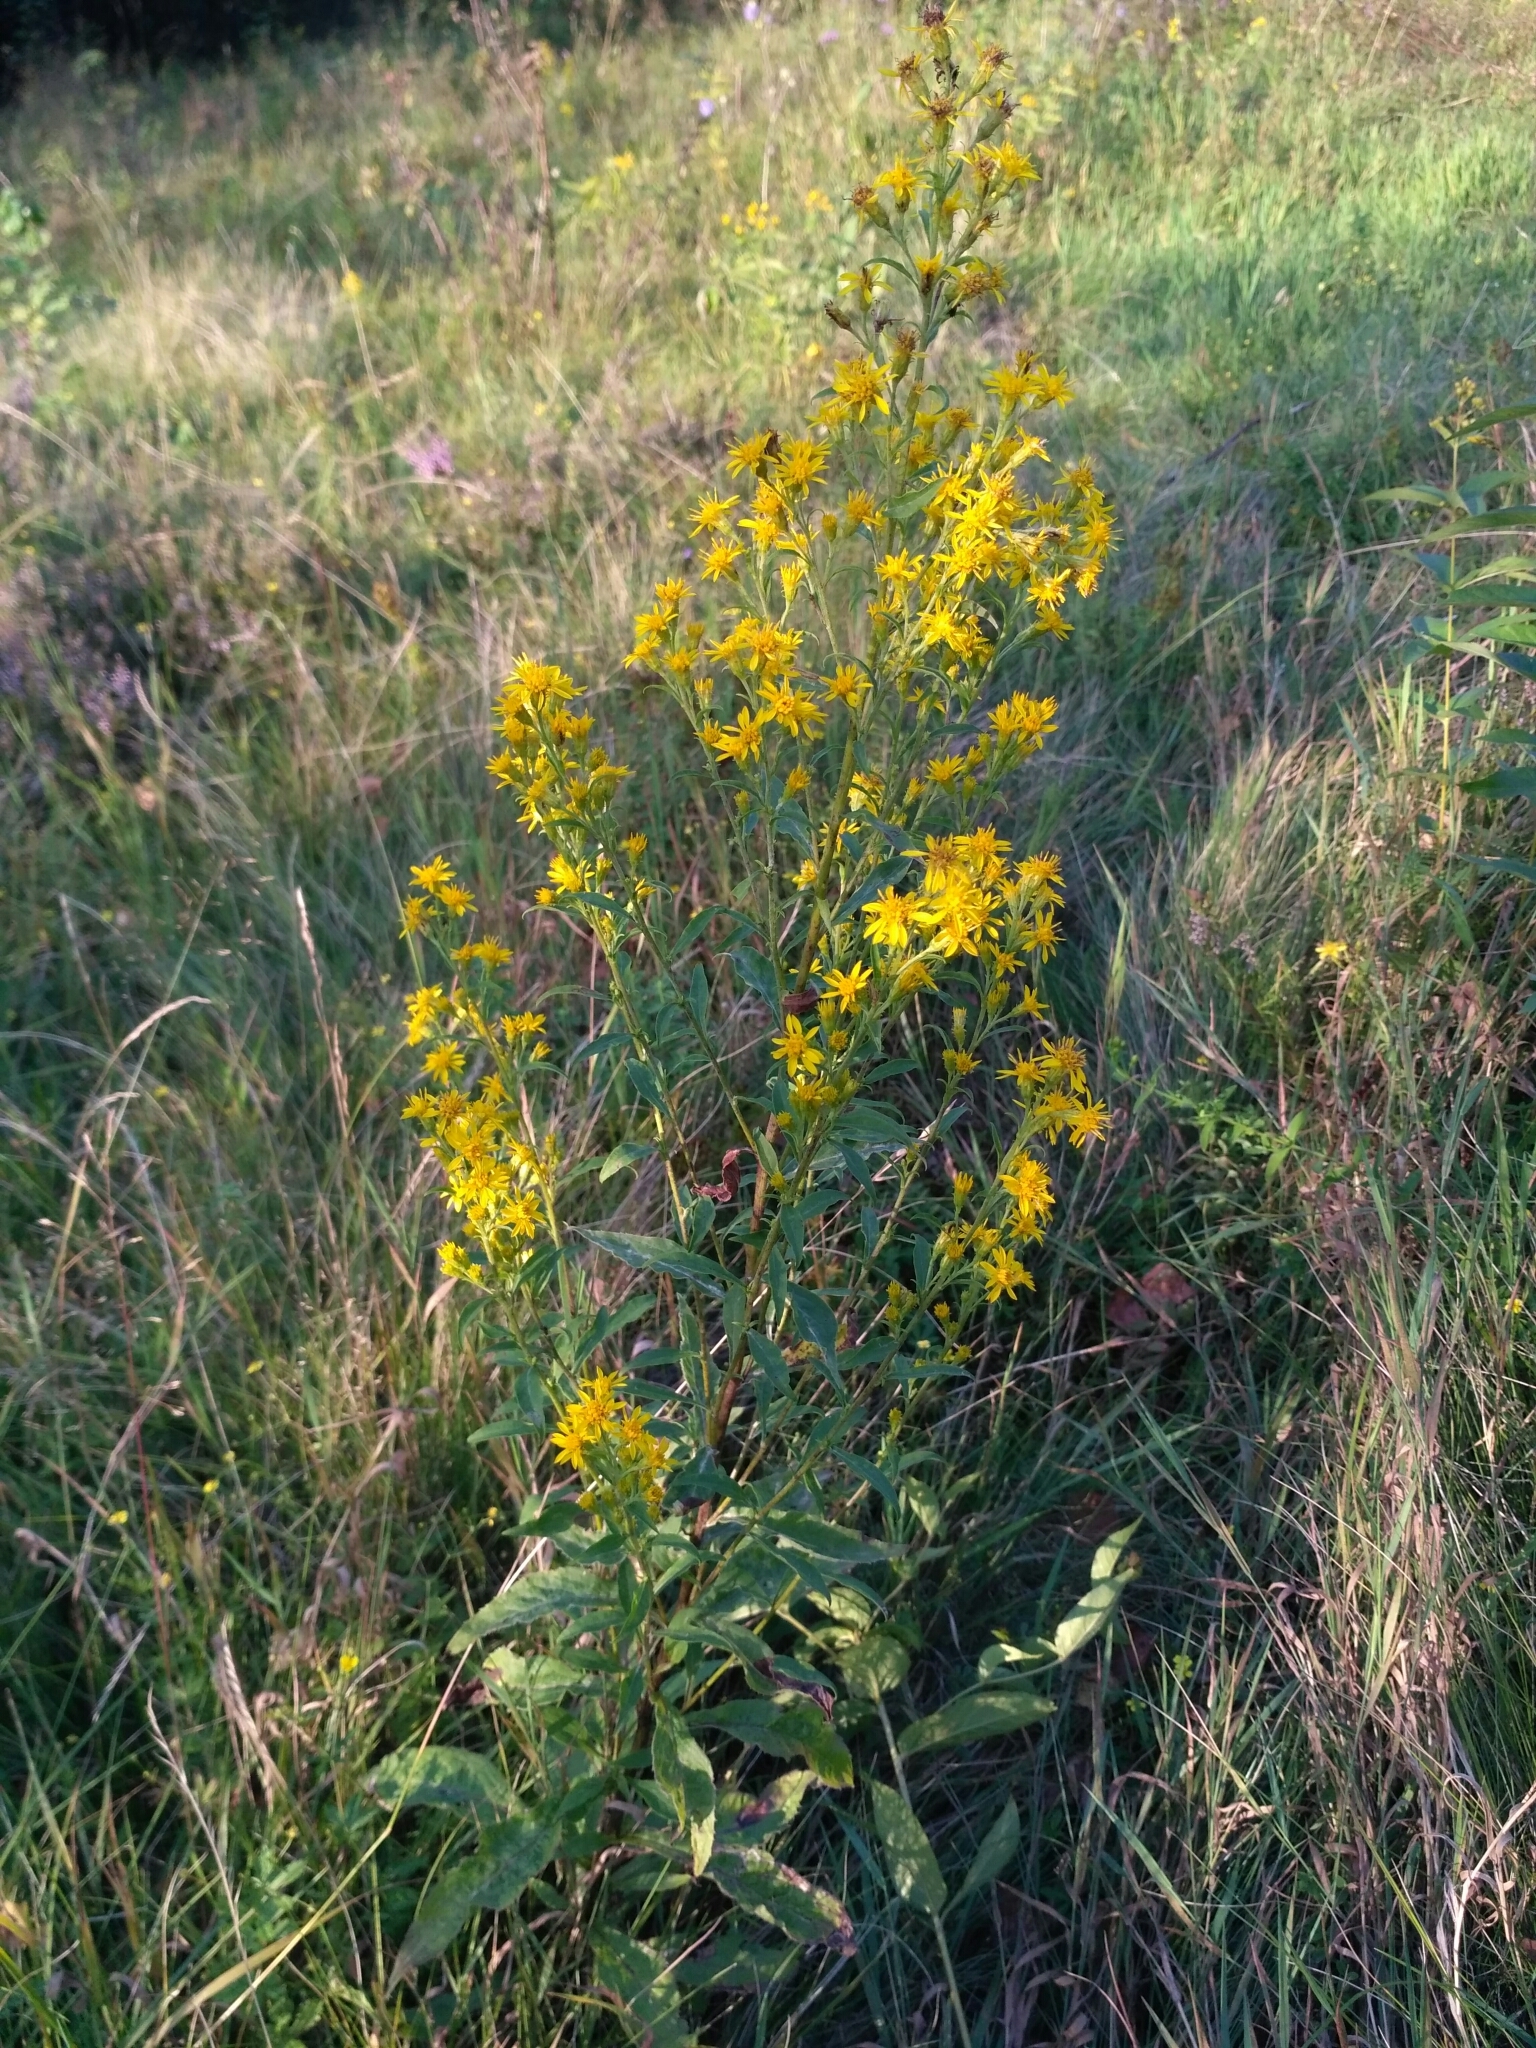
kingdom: Plantae
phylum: Tracheophyta
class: Magnoliopsida
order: Asterales
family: Asteraceae
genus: Solidago
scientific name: Solidago virgaurea
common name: Goldenrod
